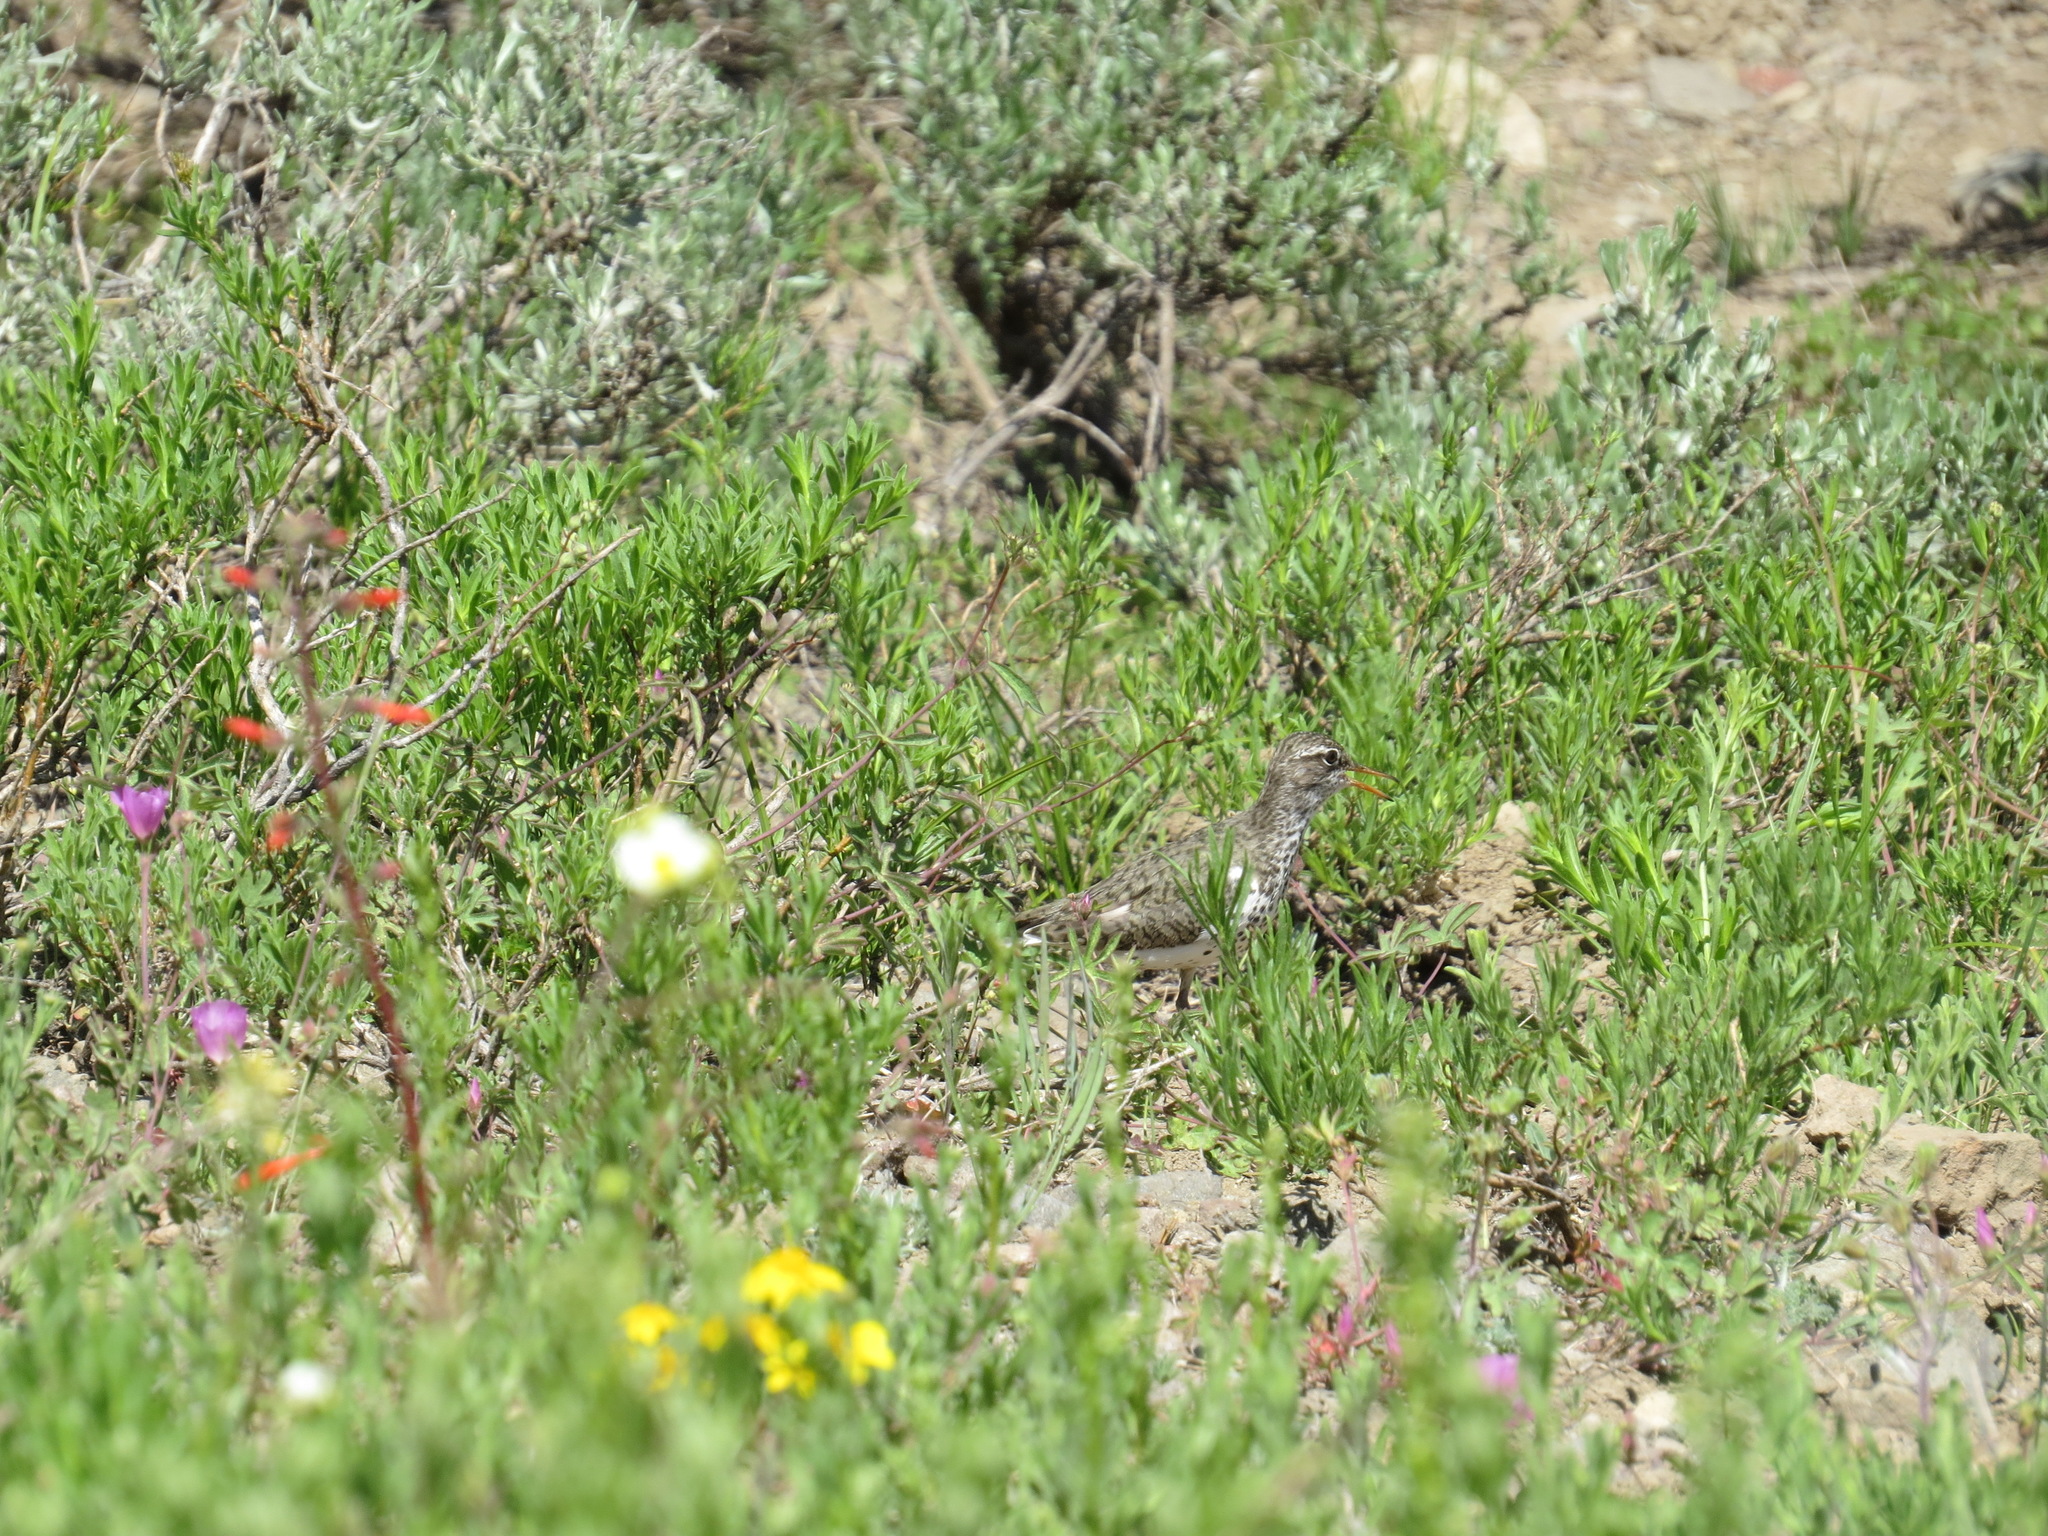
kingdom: Animalia
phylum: Chordata
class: Aves
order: Charadriiformes
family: Scolopacidae
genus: Actitis
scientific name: Actitis macularius
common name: Spotted sandpiper
